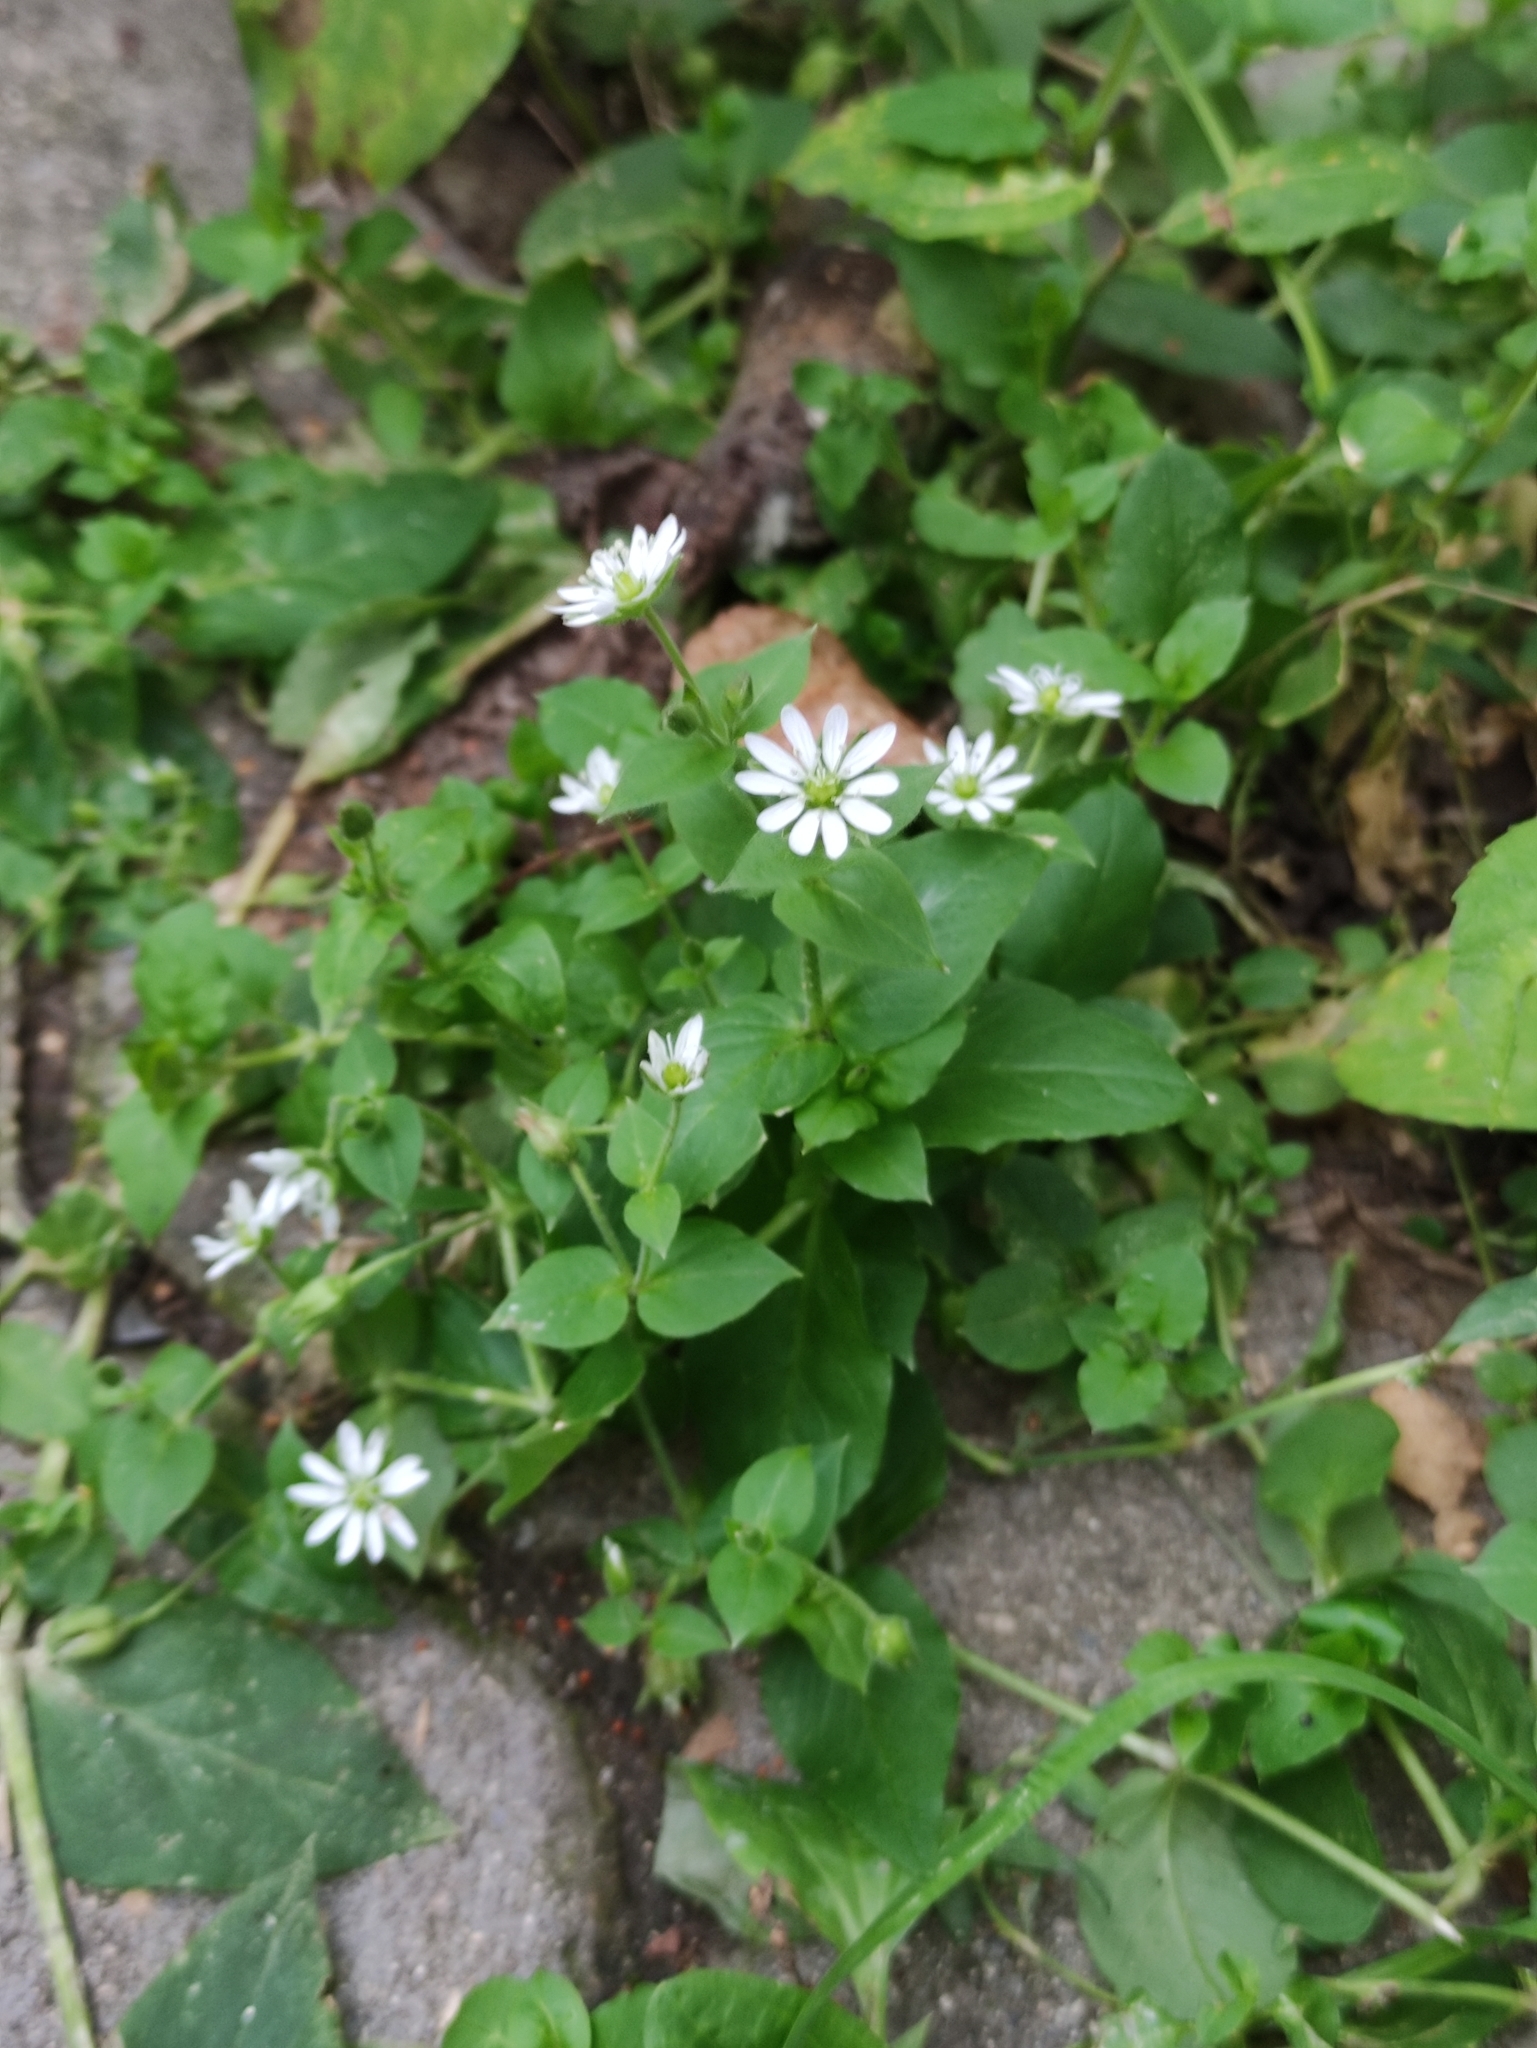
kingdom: Plantae
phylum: Tracheophyta
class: Magnoliopsida
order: Caryophyllales
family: Caryophyllaceae
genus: Stellaria
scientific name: Stellaria aquatica
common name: Water chickweed
